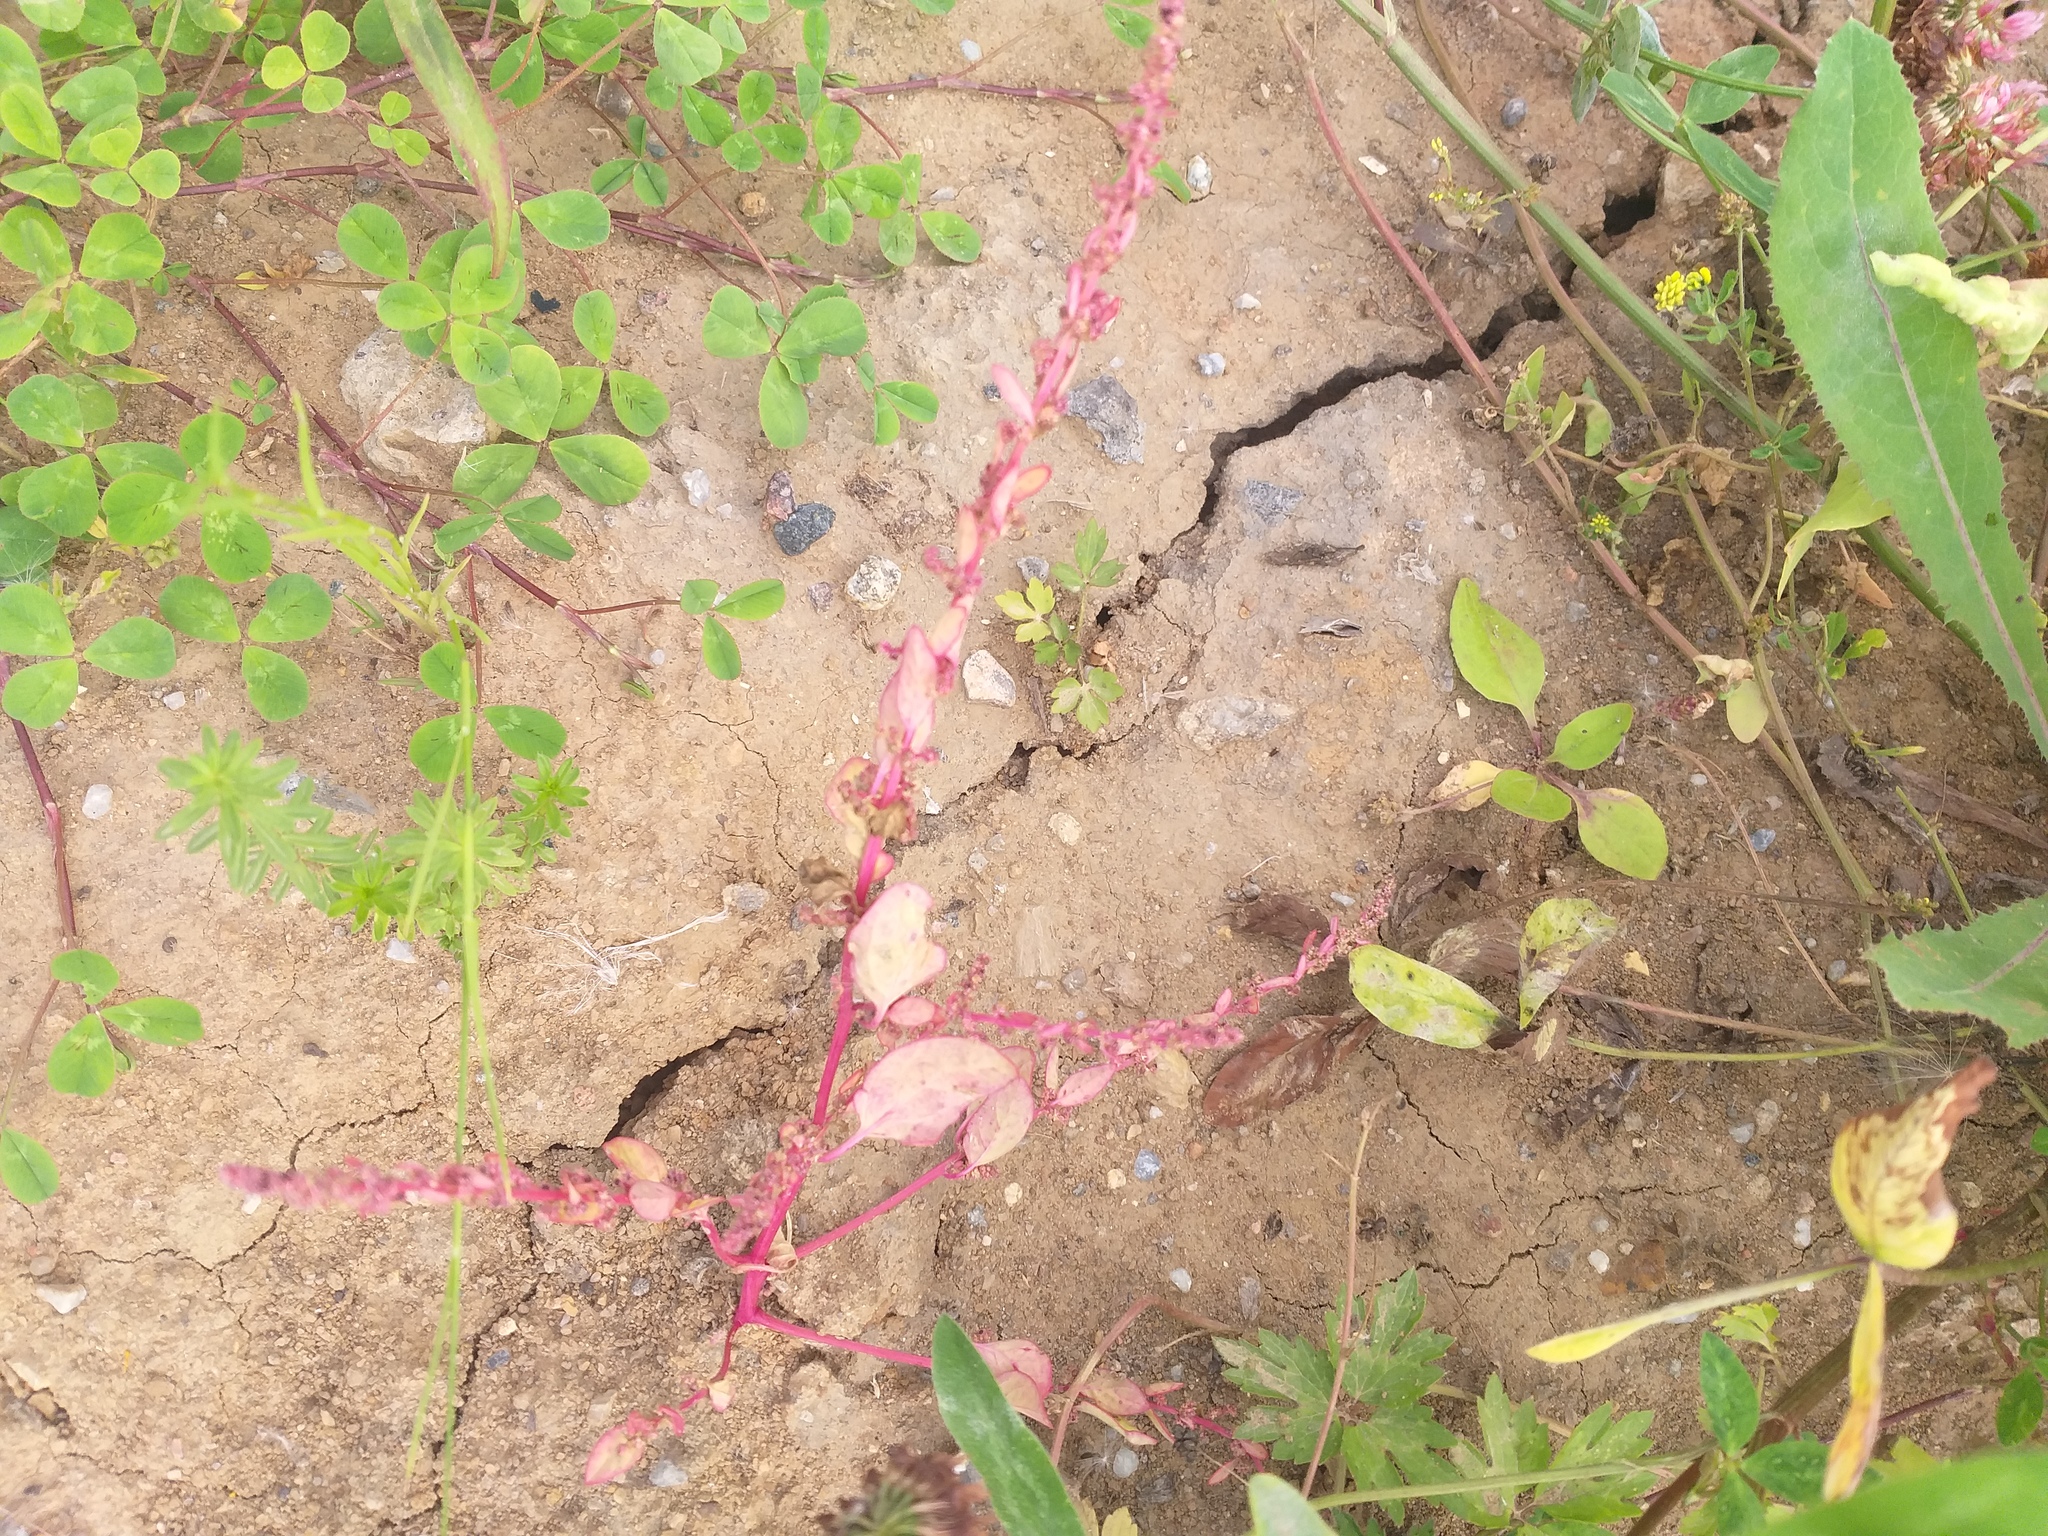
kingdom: Plantae
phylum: Tracheophyta
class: Magnoliopsida
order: Caryophyllales
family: Amaranthaceae
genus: Lipandra
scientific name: Lipandra polysperma
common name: Many-seed goosefoot
